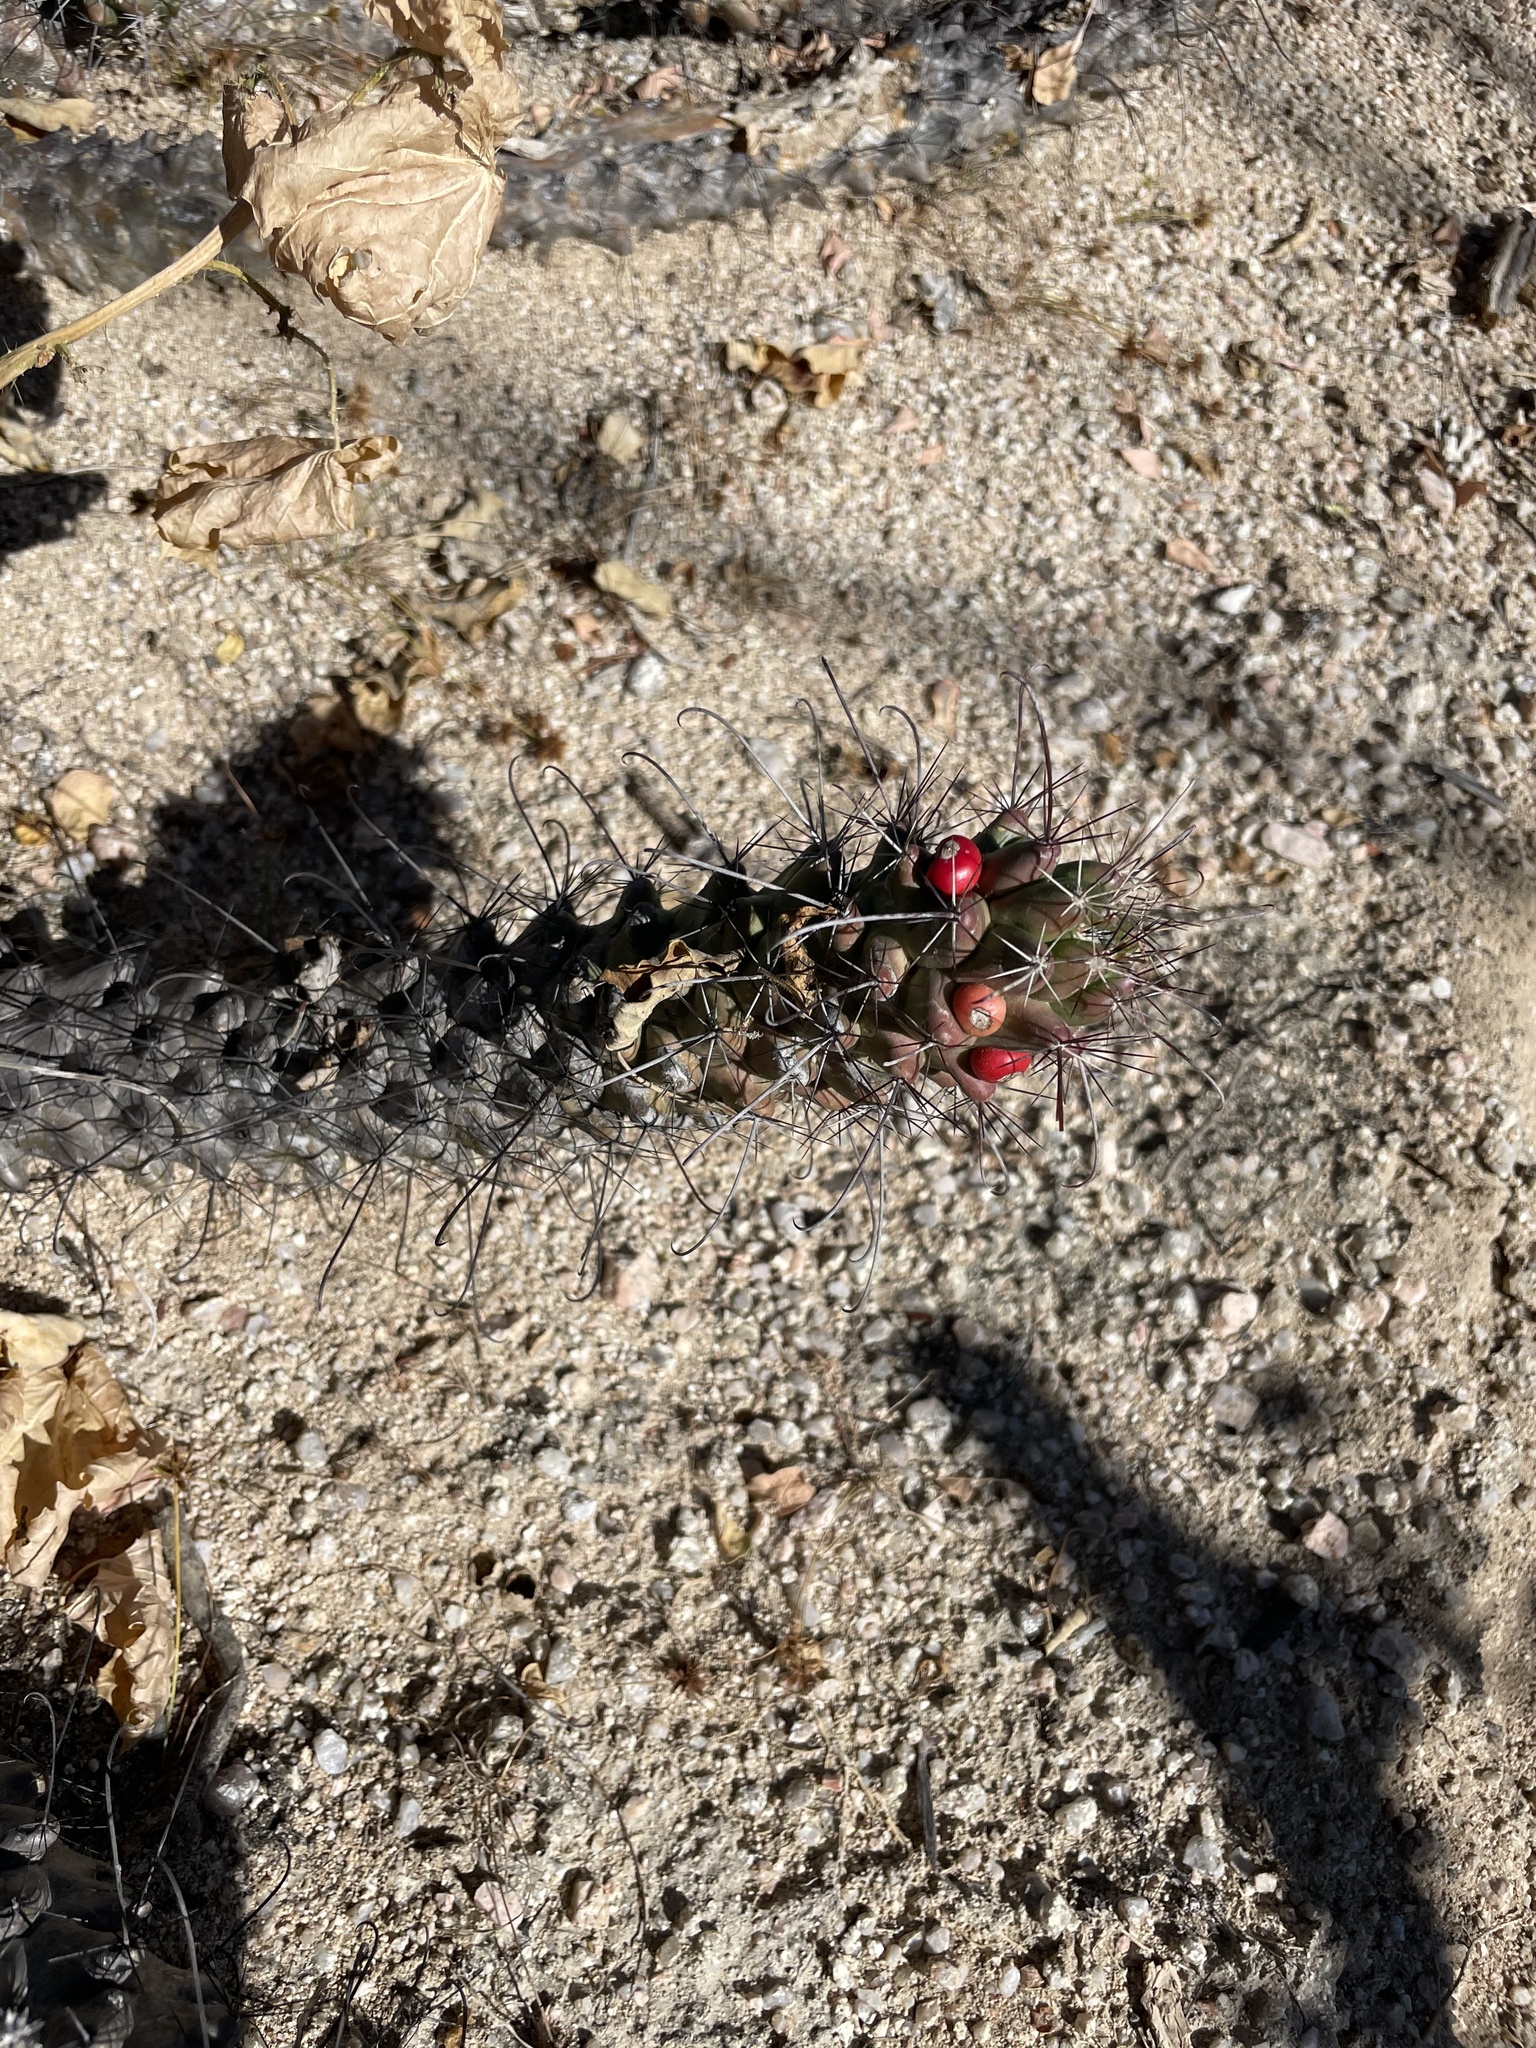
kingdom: Plantae
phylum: Tracheophyta
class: Magnoliopsida
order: Caryophyllales
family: Cactaceae
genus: Cochemiea
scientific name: Cochemiea poselgeri
